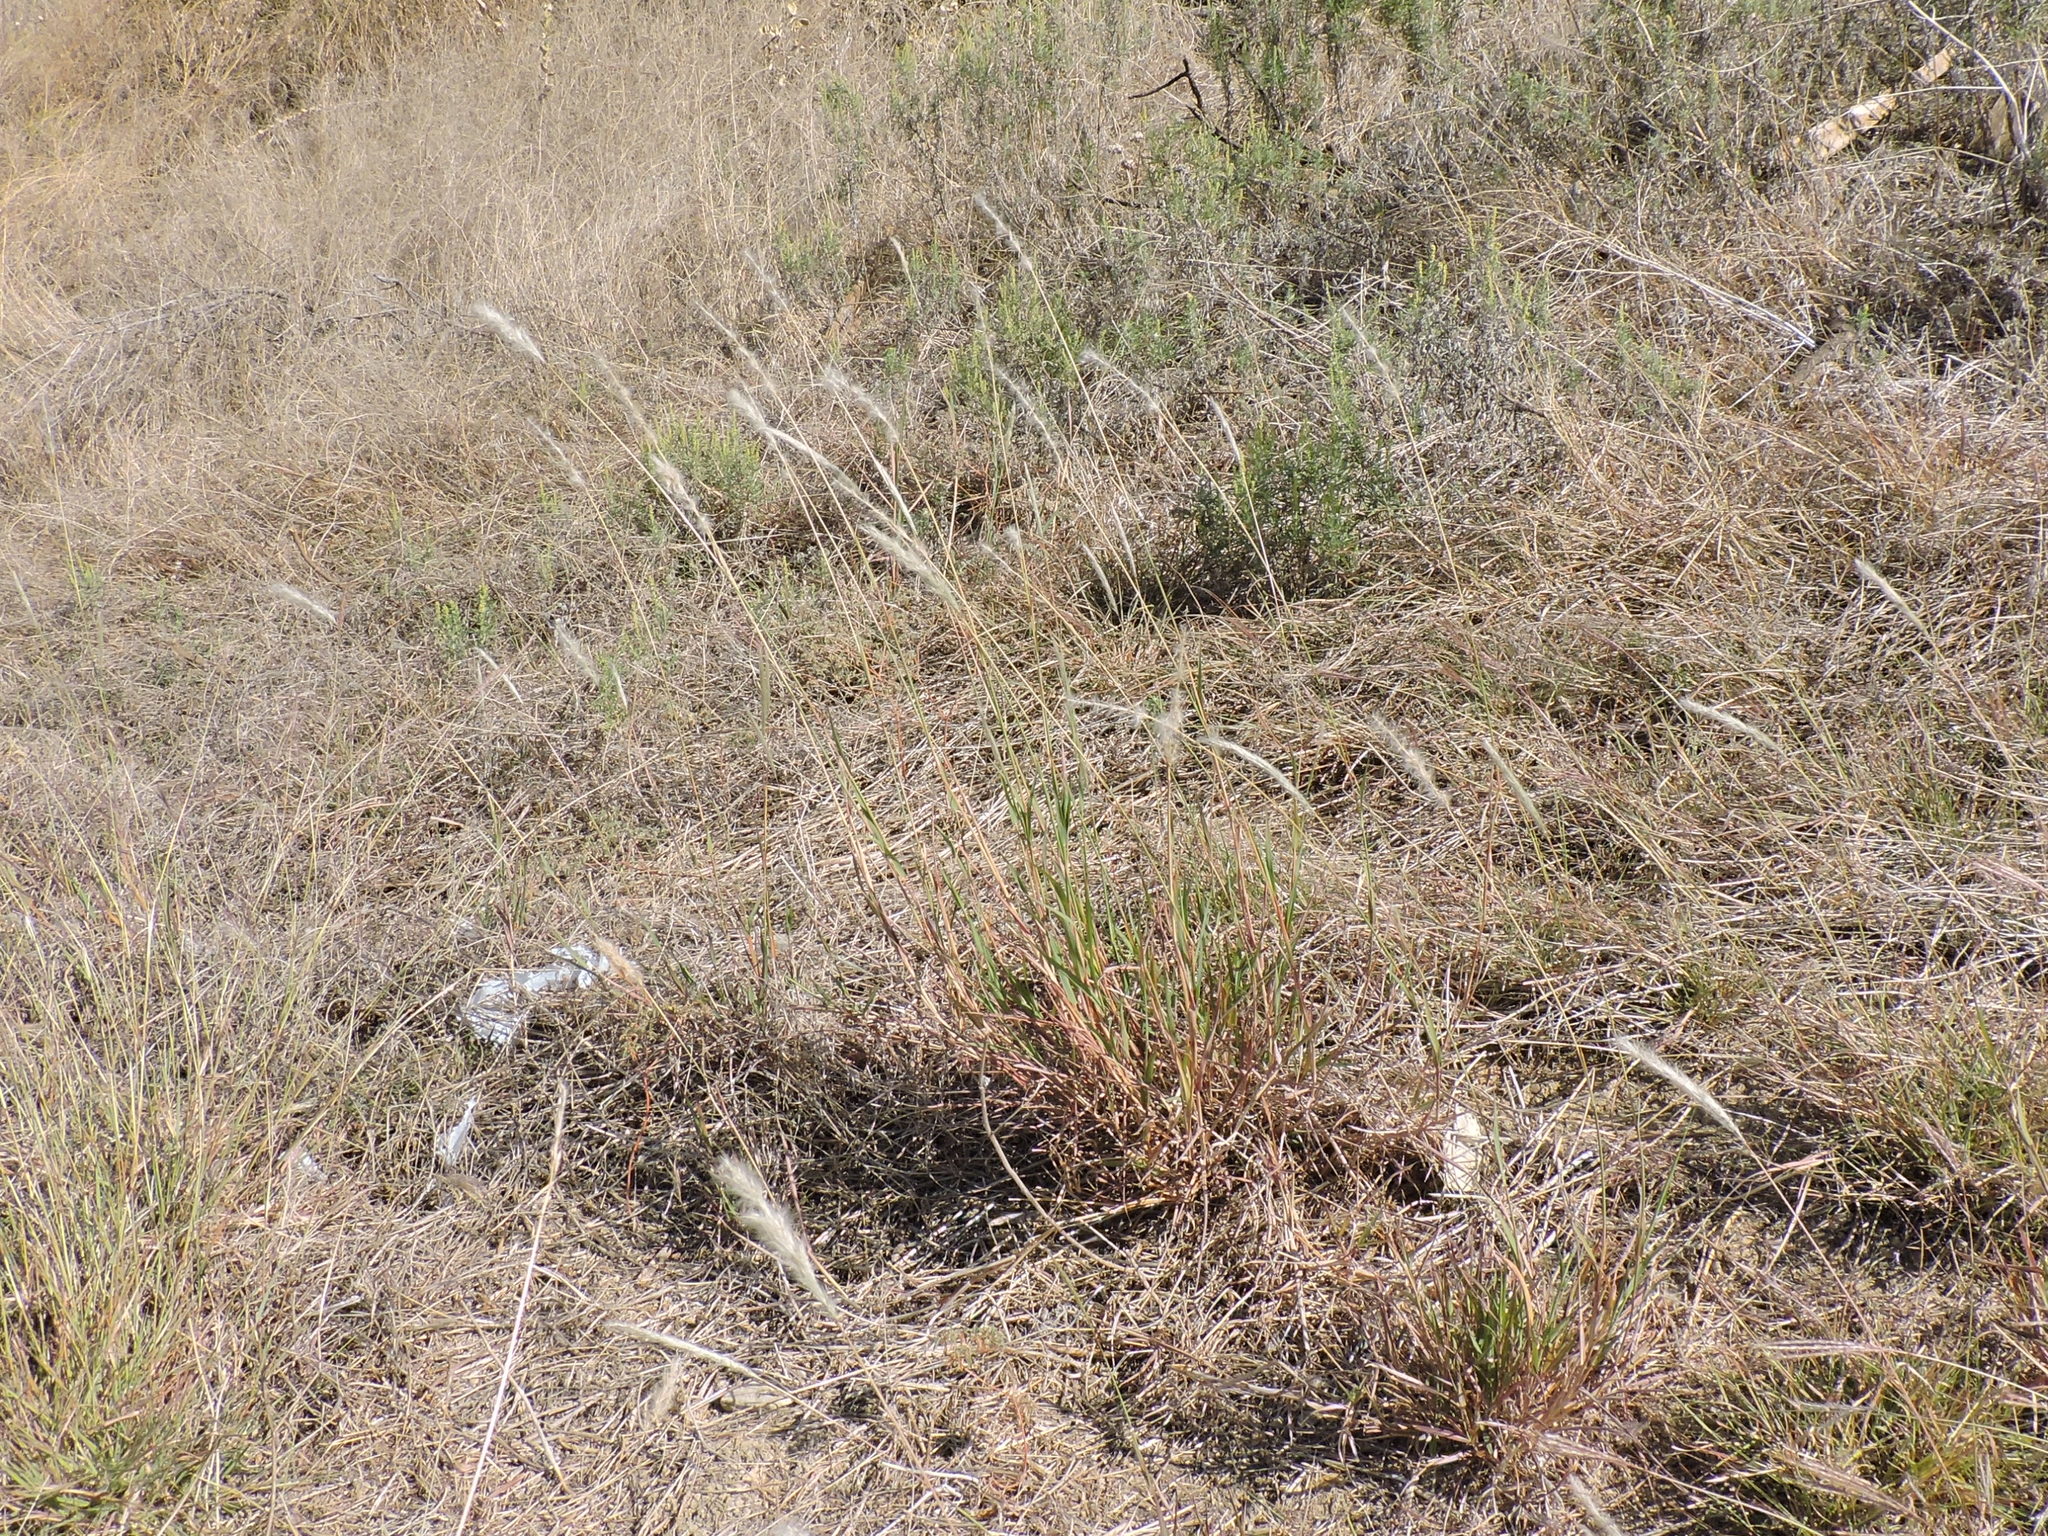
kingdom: Plantae
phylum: Tracheophyta
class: Liliopsida
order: Poales
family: Poaceae
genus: Bothriochloa
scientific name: Bothriochloa torreyana
